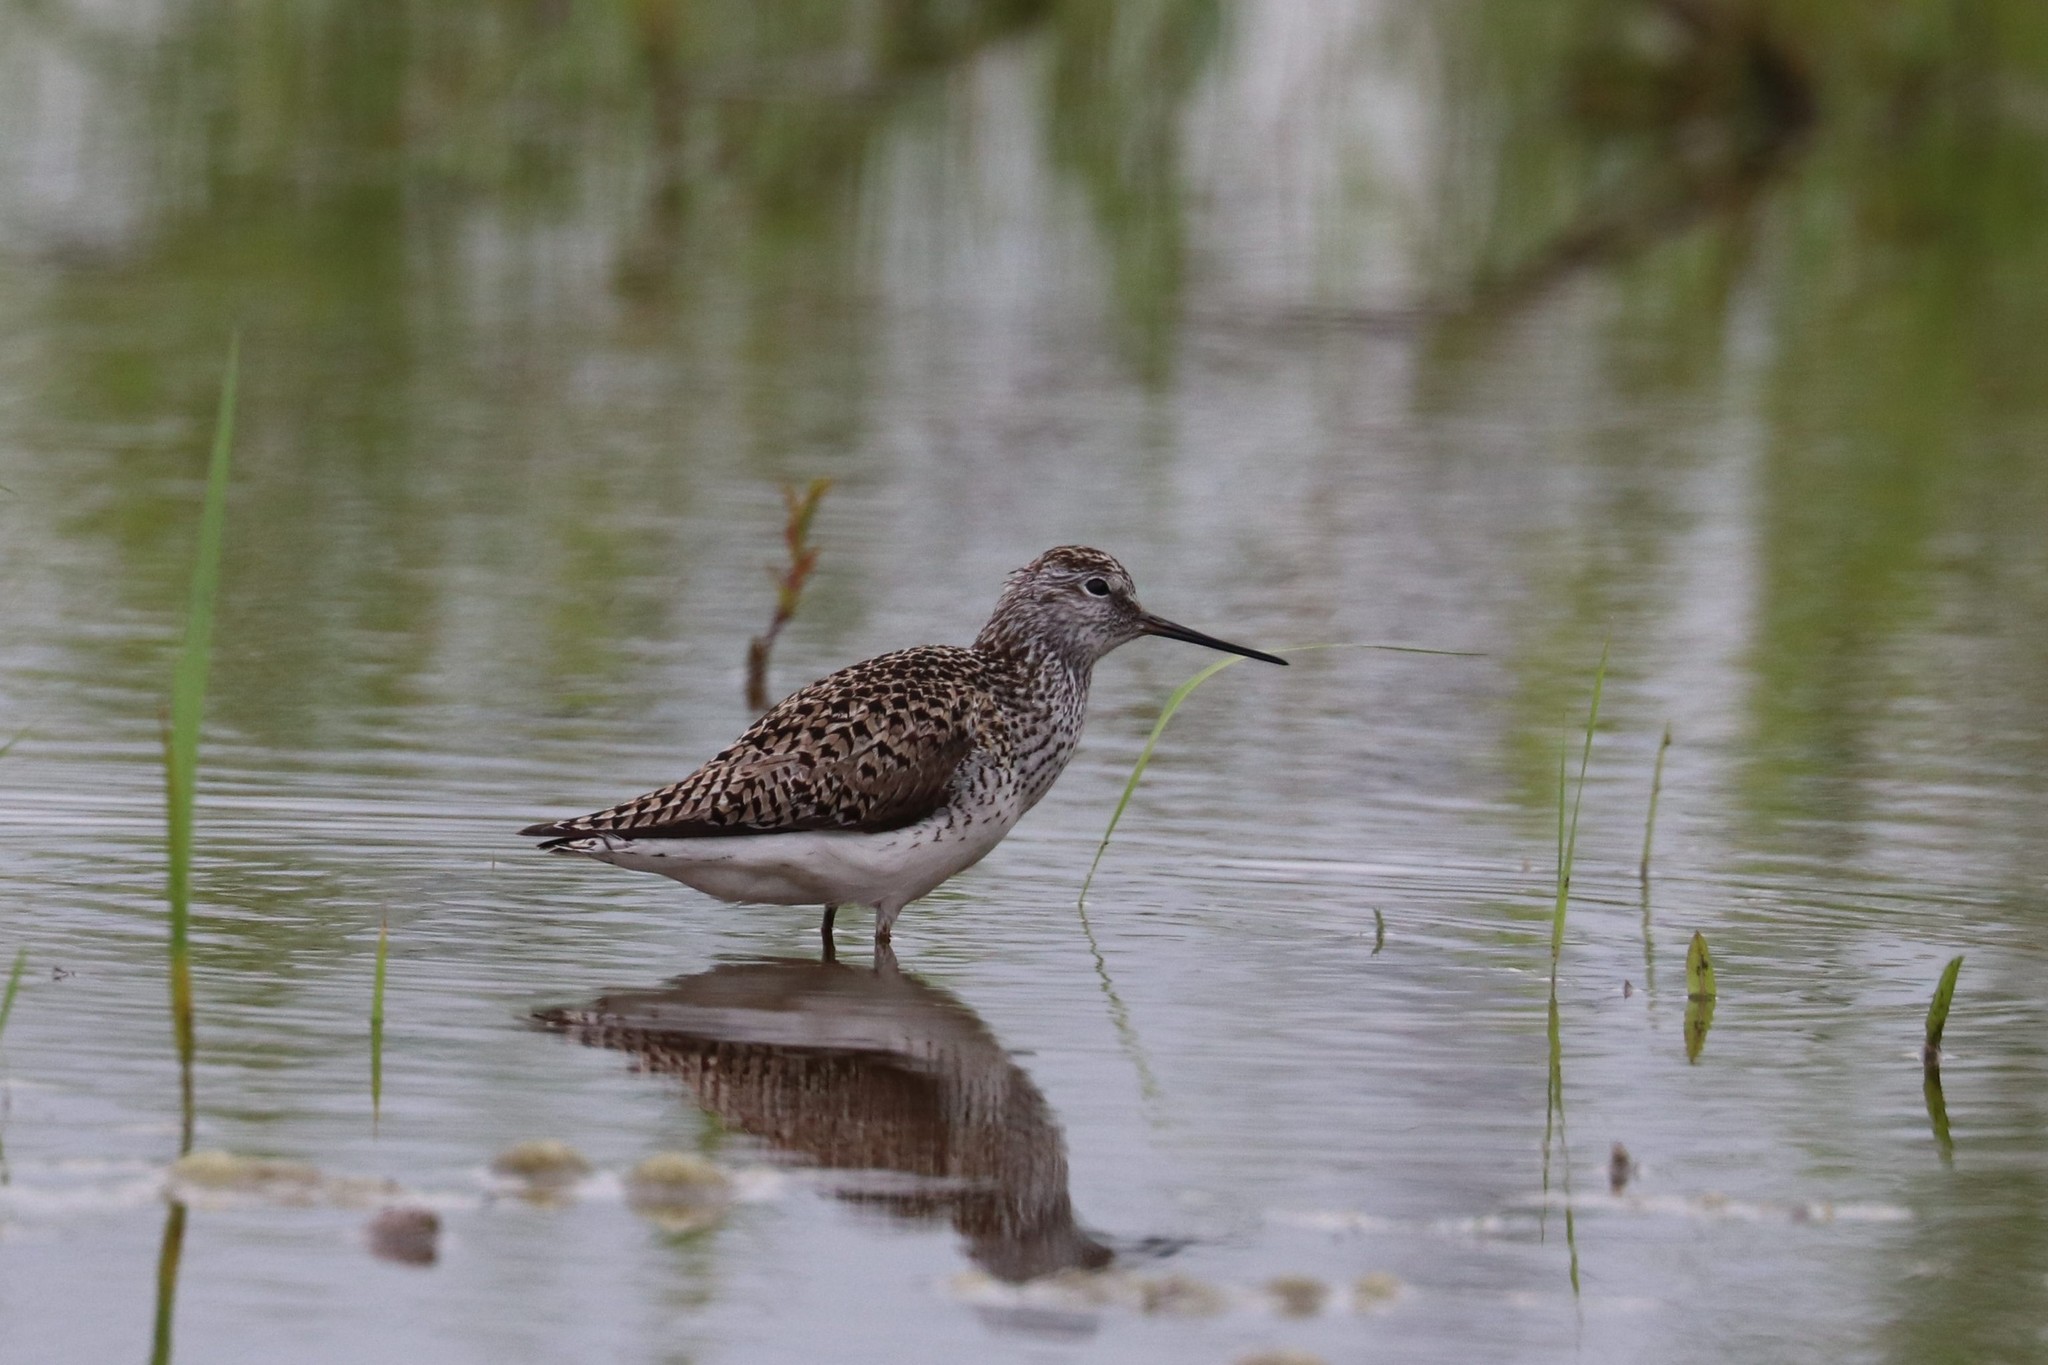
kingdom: Animalia
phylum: Chordata
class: Aves
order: Charadriiformes
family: Scolopacidae
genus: Tringa
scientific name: Tringa stagnatilis
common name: Marsh sandpiper
